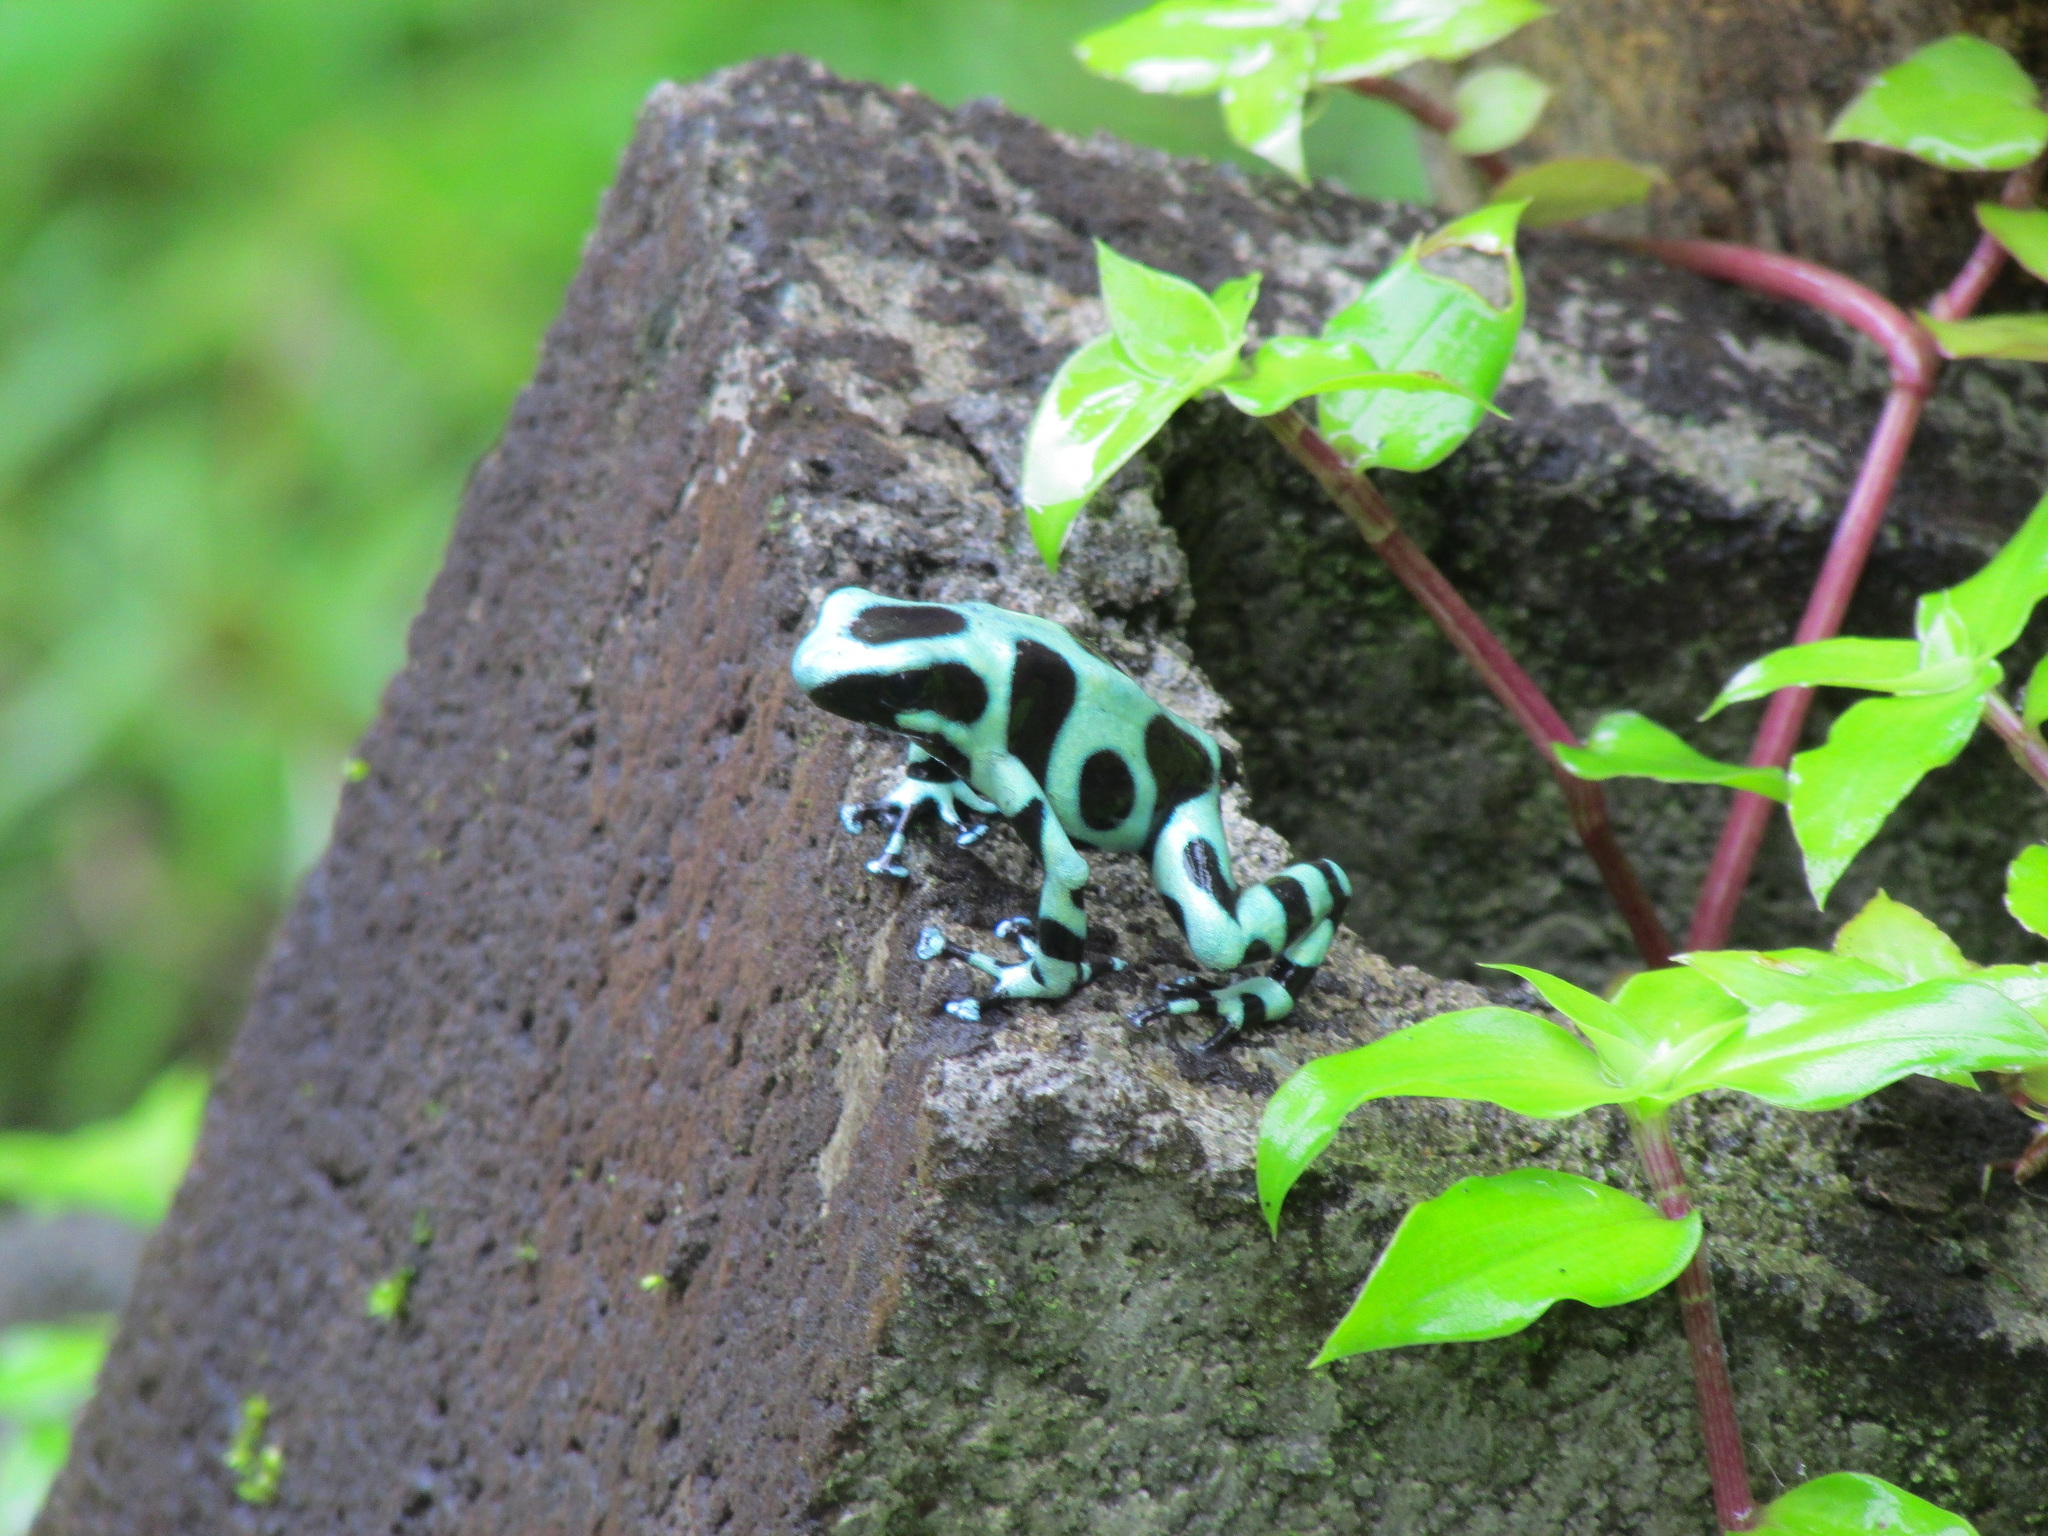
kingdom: Animalia
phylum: Chordata
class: Amphibia
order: Anura
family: Dendrobatidae
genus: Dendrobates
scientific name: Dendrobates auratus
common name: Green and black poison dart frog
